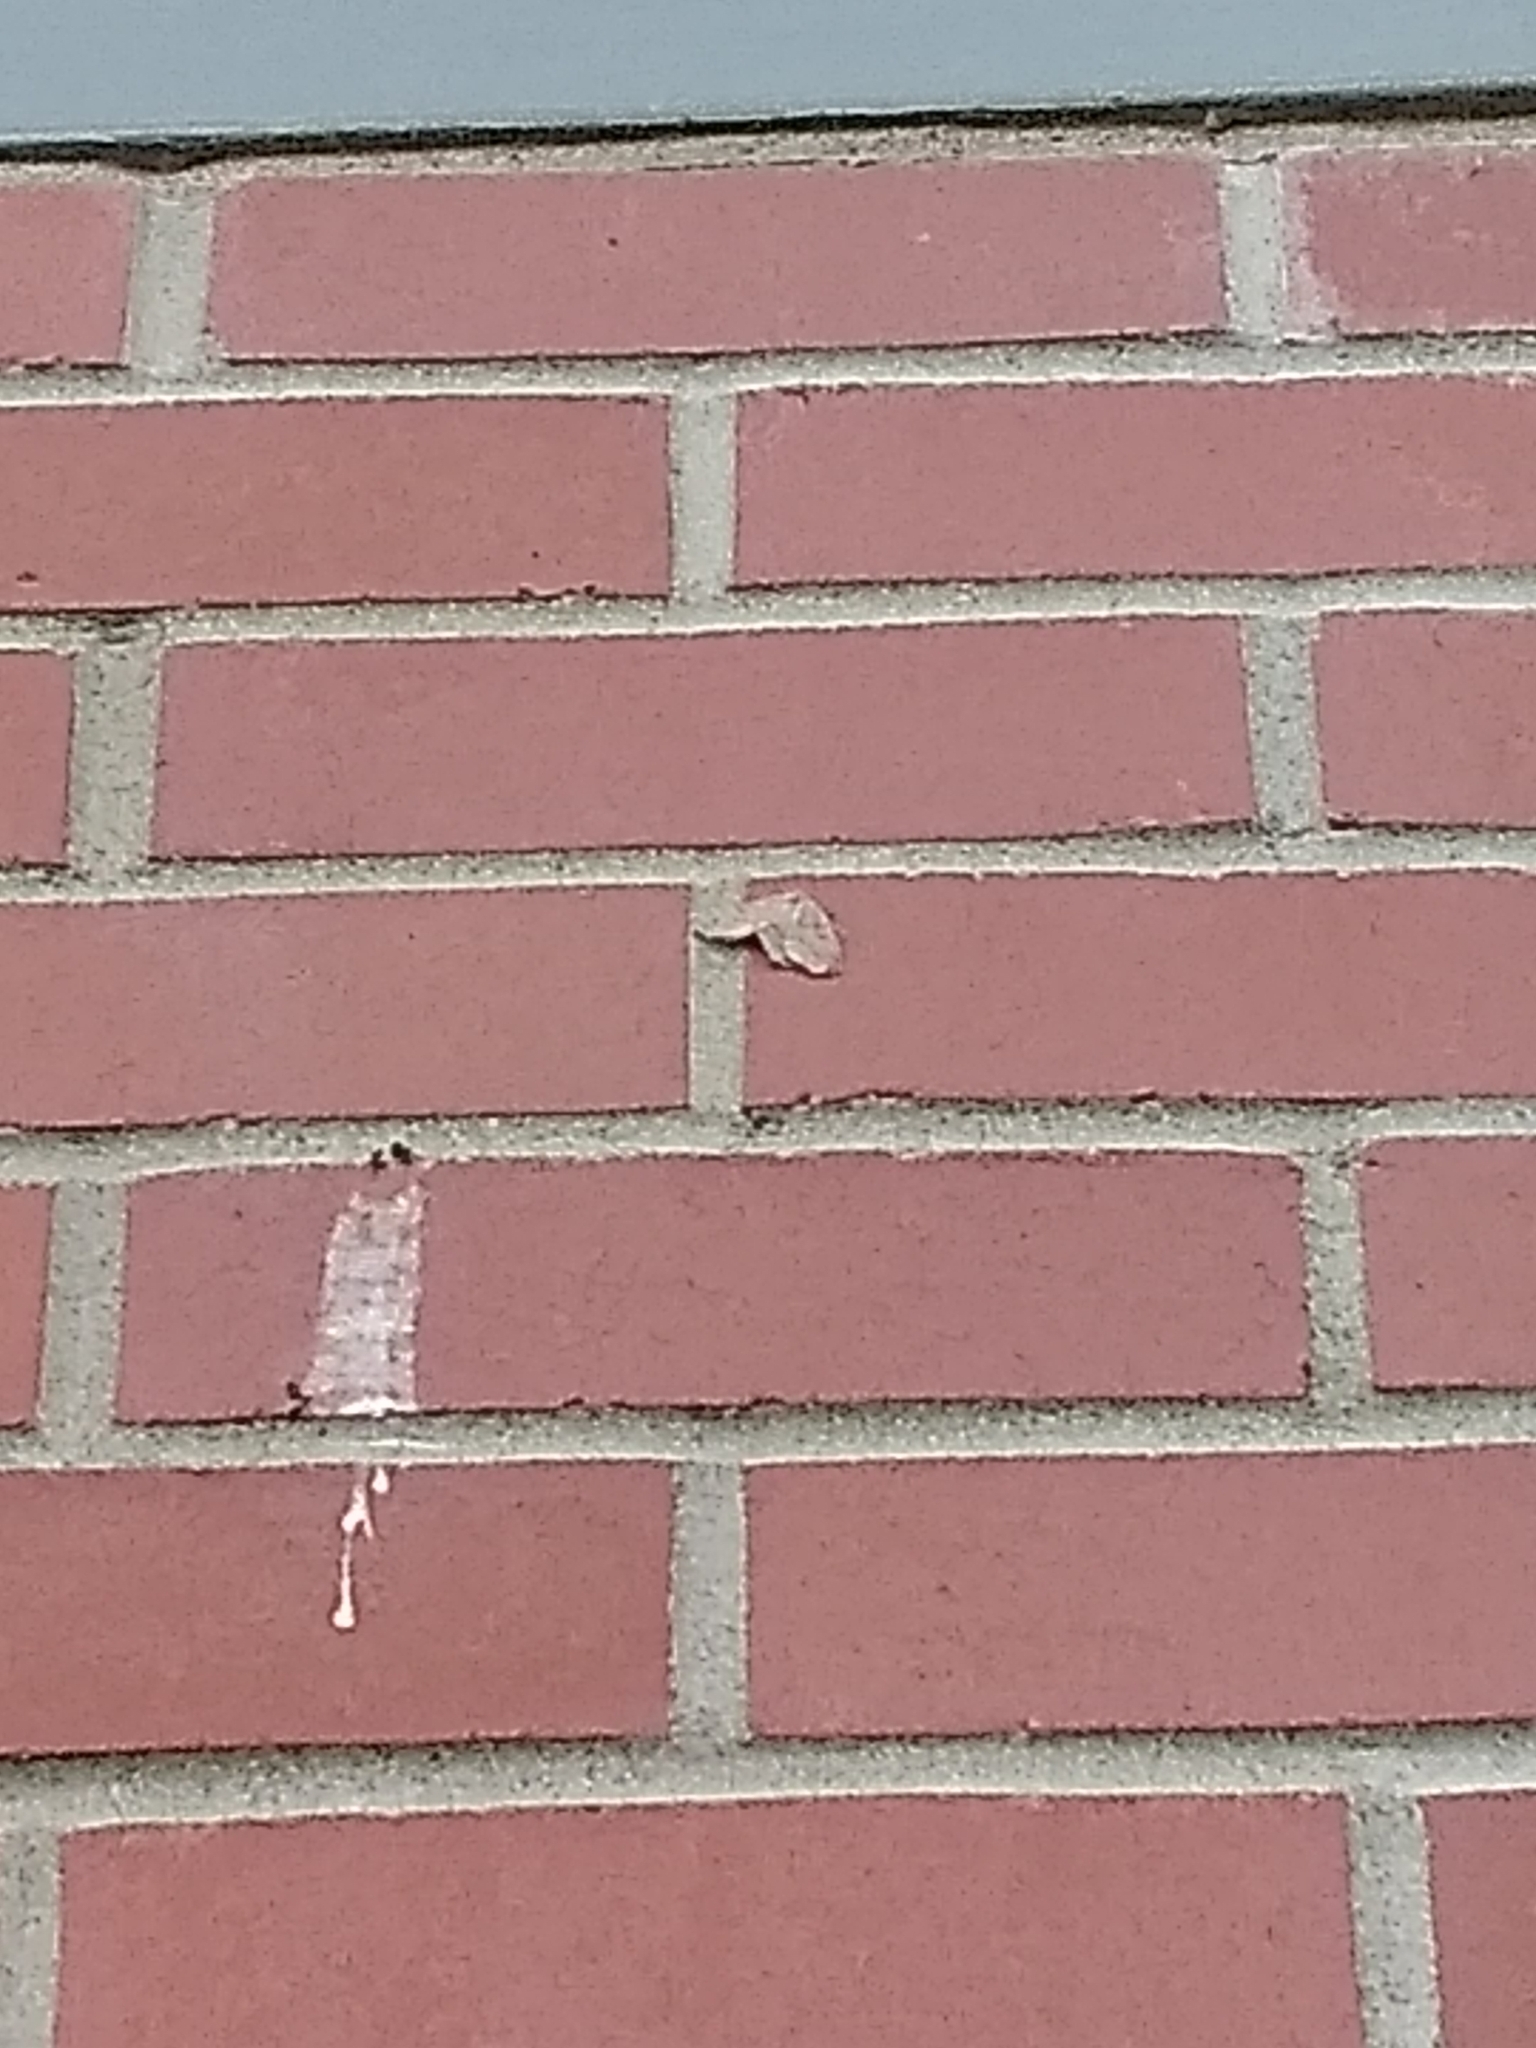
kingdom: Animalia
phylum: Arthropoda
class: Insecta
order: Lepidoptera
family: Geometridae
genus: Lambdina
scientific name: Lambdina fiscellaria
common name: Hemlock looper
